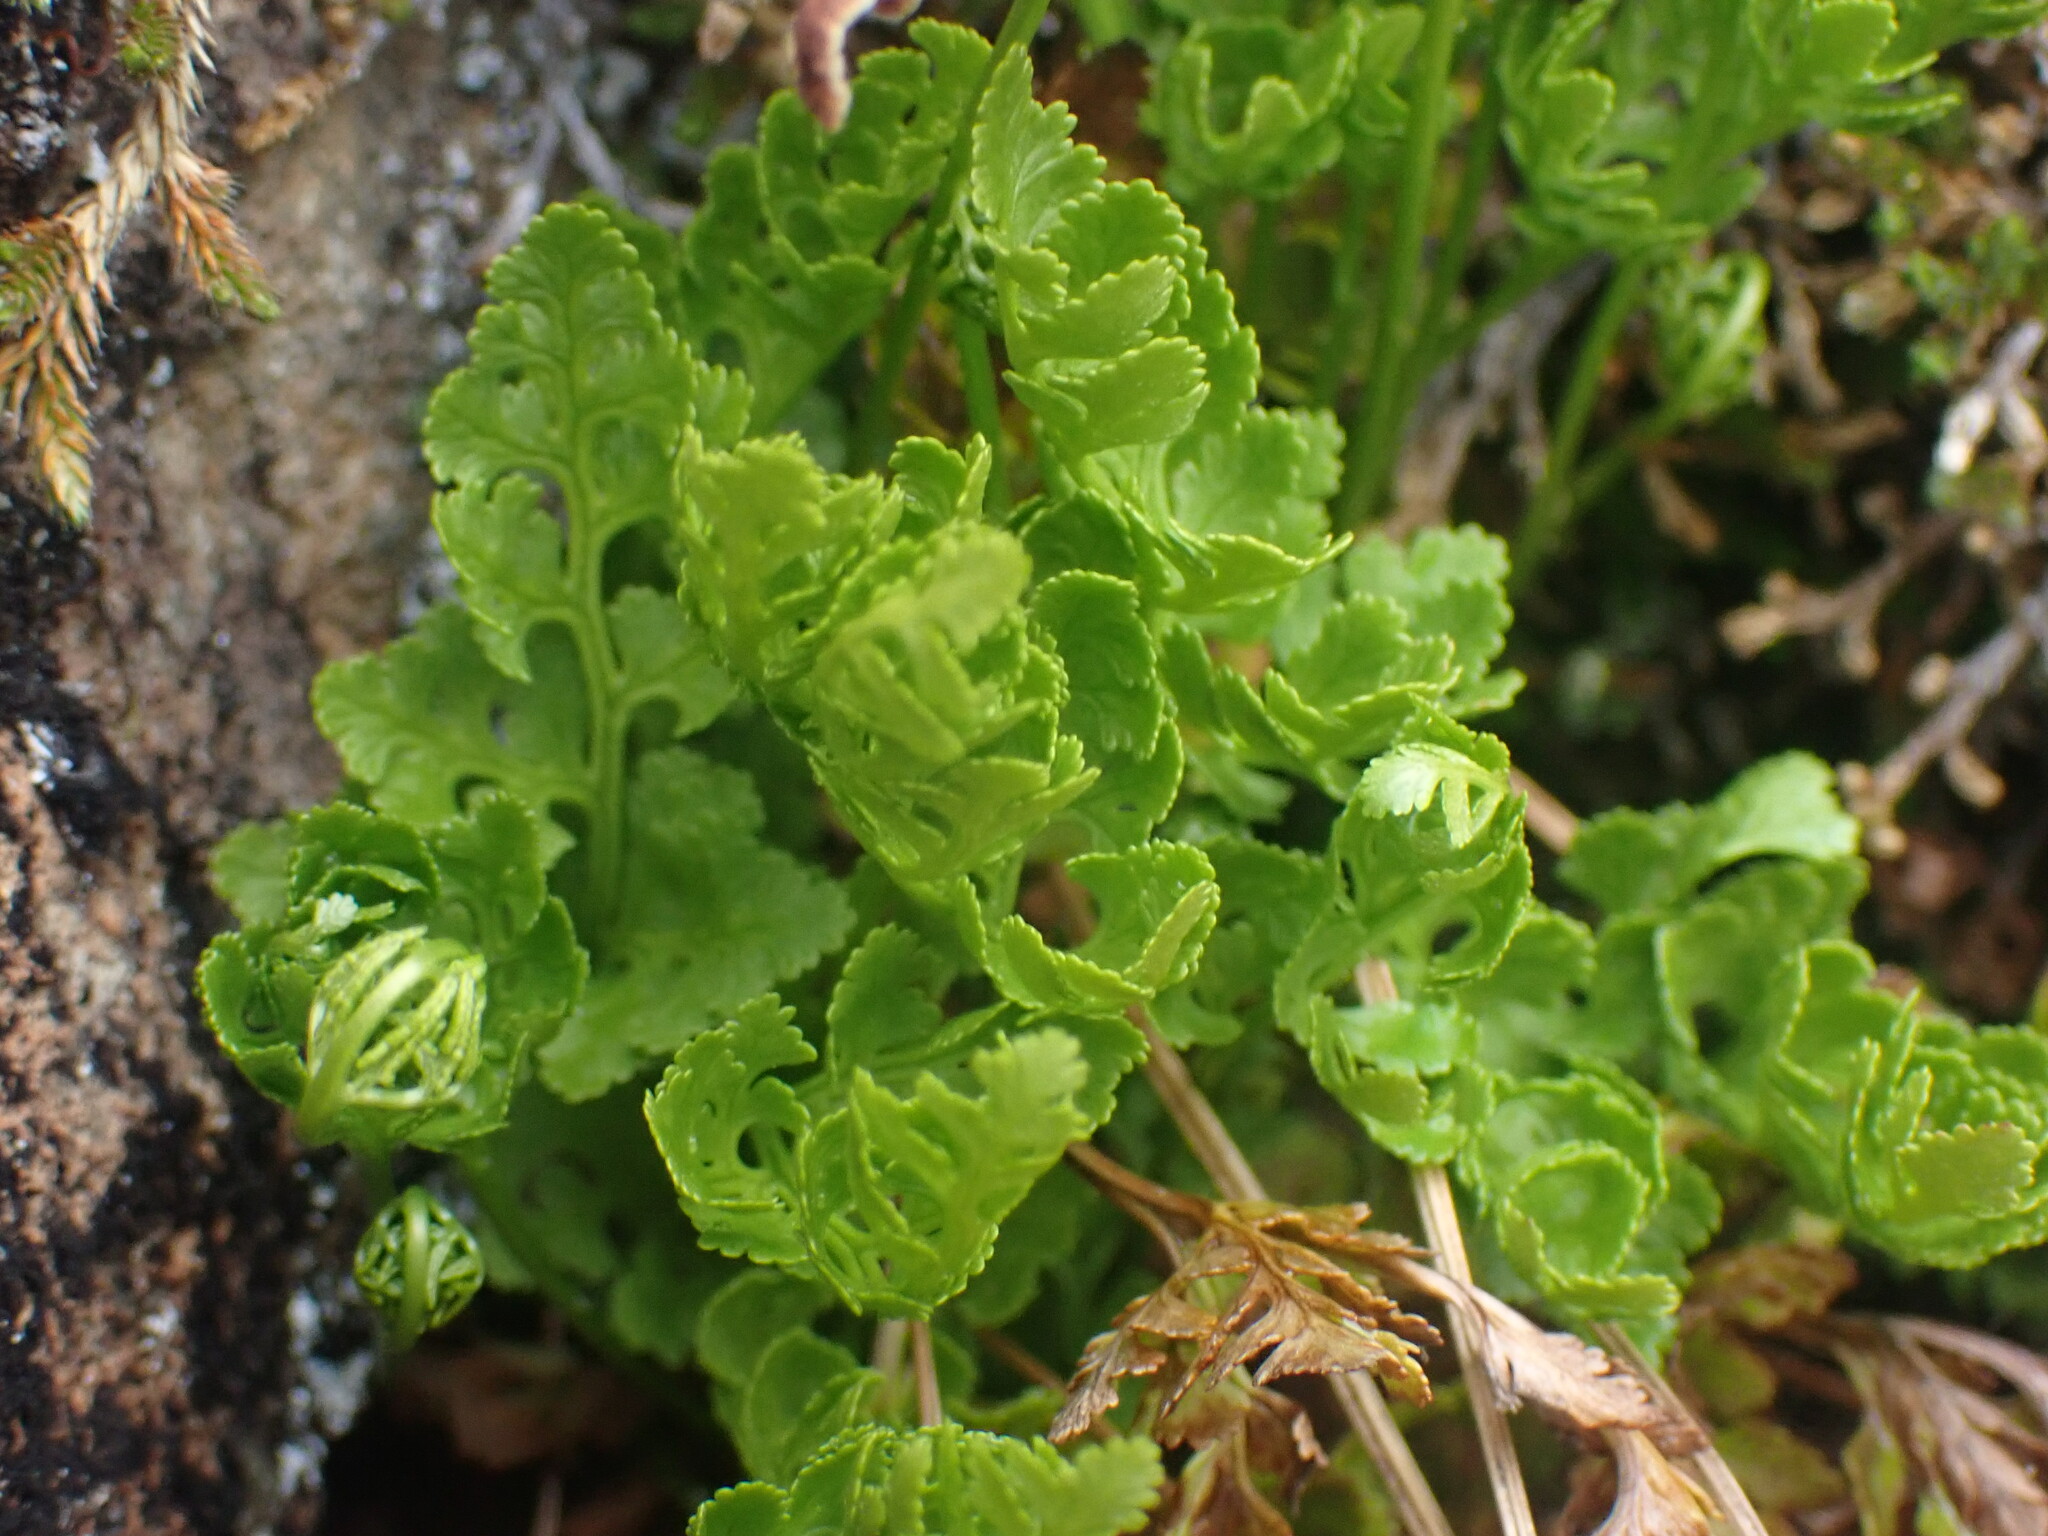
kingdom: Plantae
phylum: Tracheophyta
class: Polypodiopsida
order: Polypodiales
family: Pteridaceae
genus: Cryptogramma
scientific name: Cryptogramma acrostichoides
